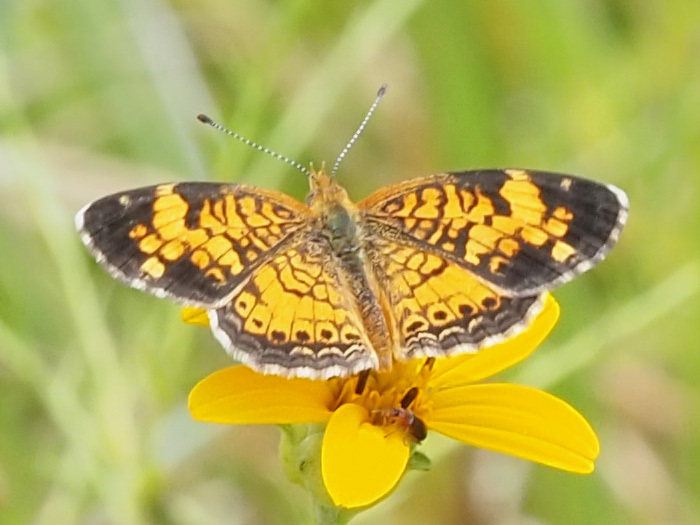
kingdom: Animalia
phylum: Arthropoda
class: Insecta
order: Lepidoptera
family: Nymphalidae
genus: Phyciodes
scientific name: Phyciodes tharos
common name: Pearl crescent
